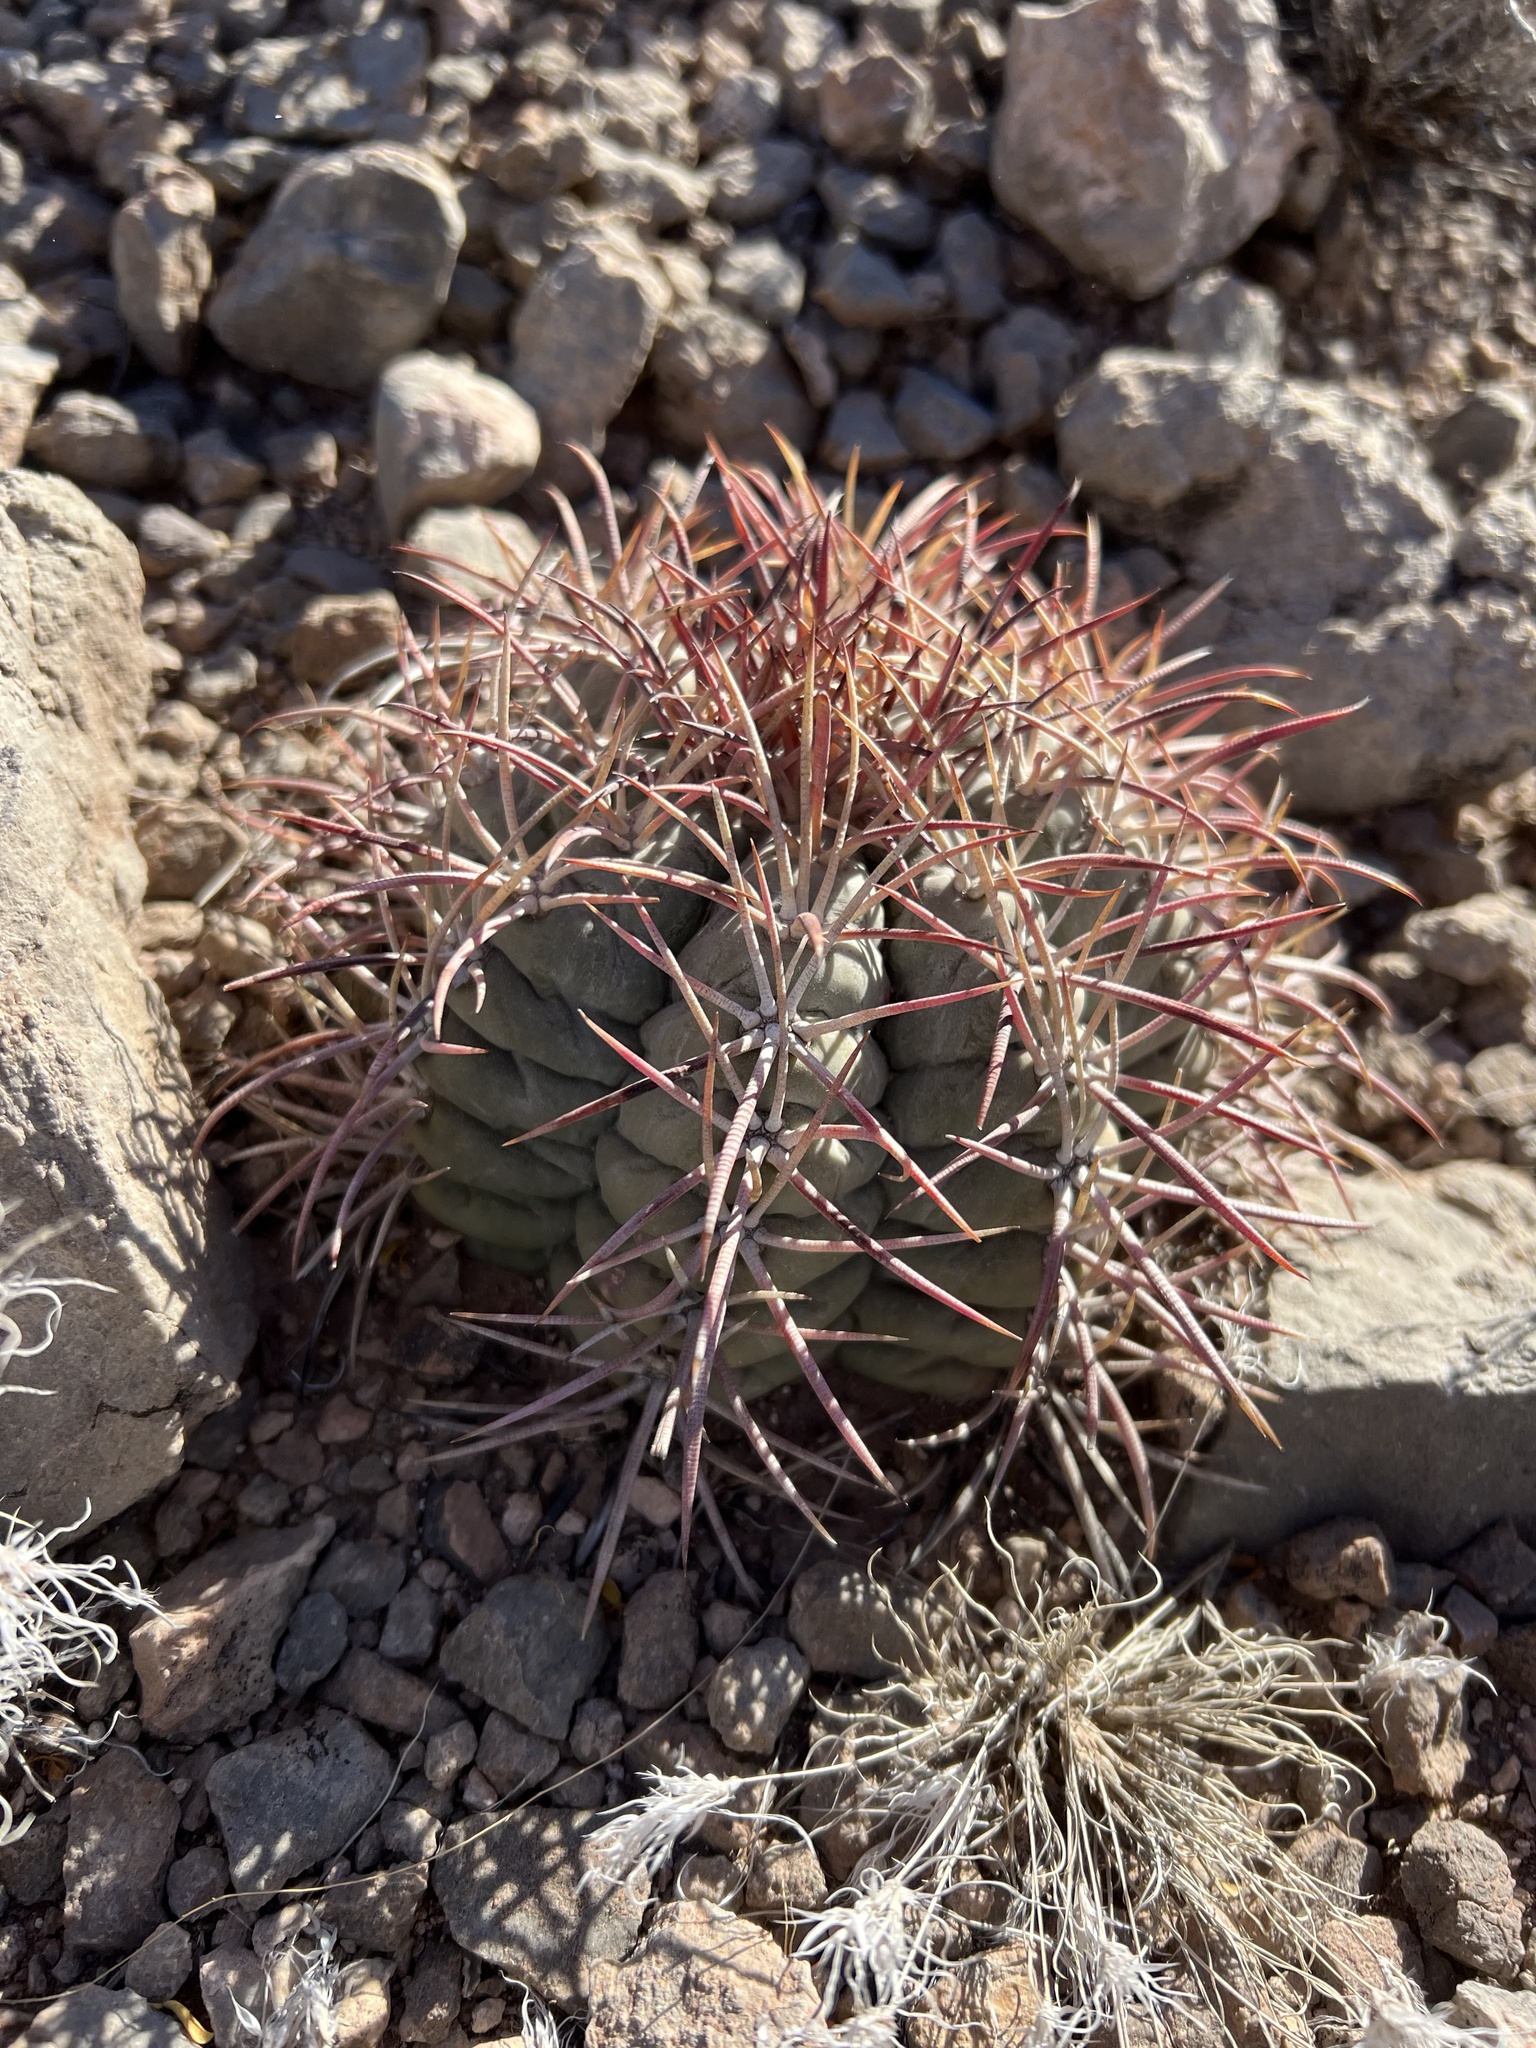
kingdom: Plantae
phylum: Tracheophyta
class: Magnoliopsida
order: Caryophyllales
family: Cactaceae
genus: Echinocactus
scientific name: Echinocactus horizonthalonius
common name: Devilshead
